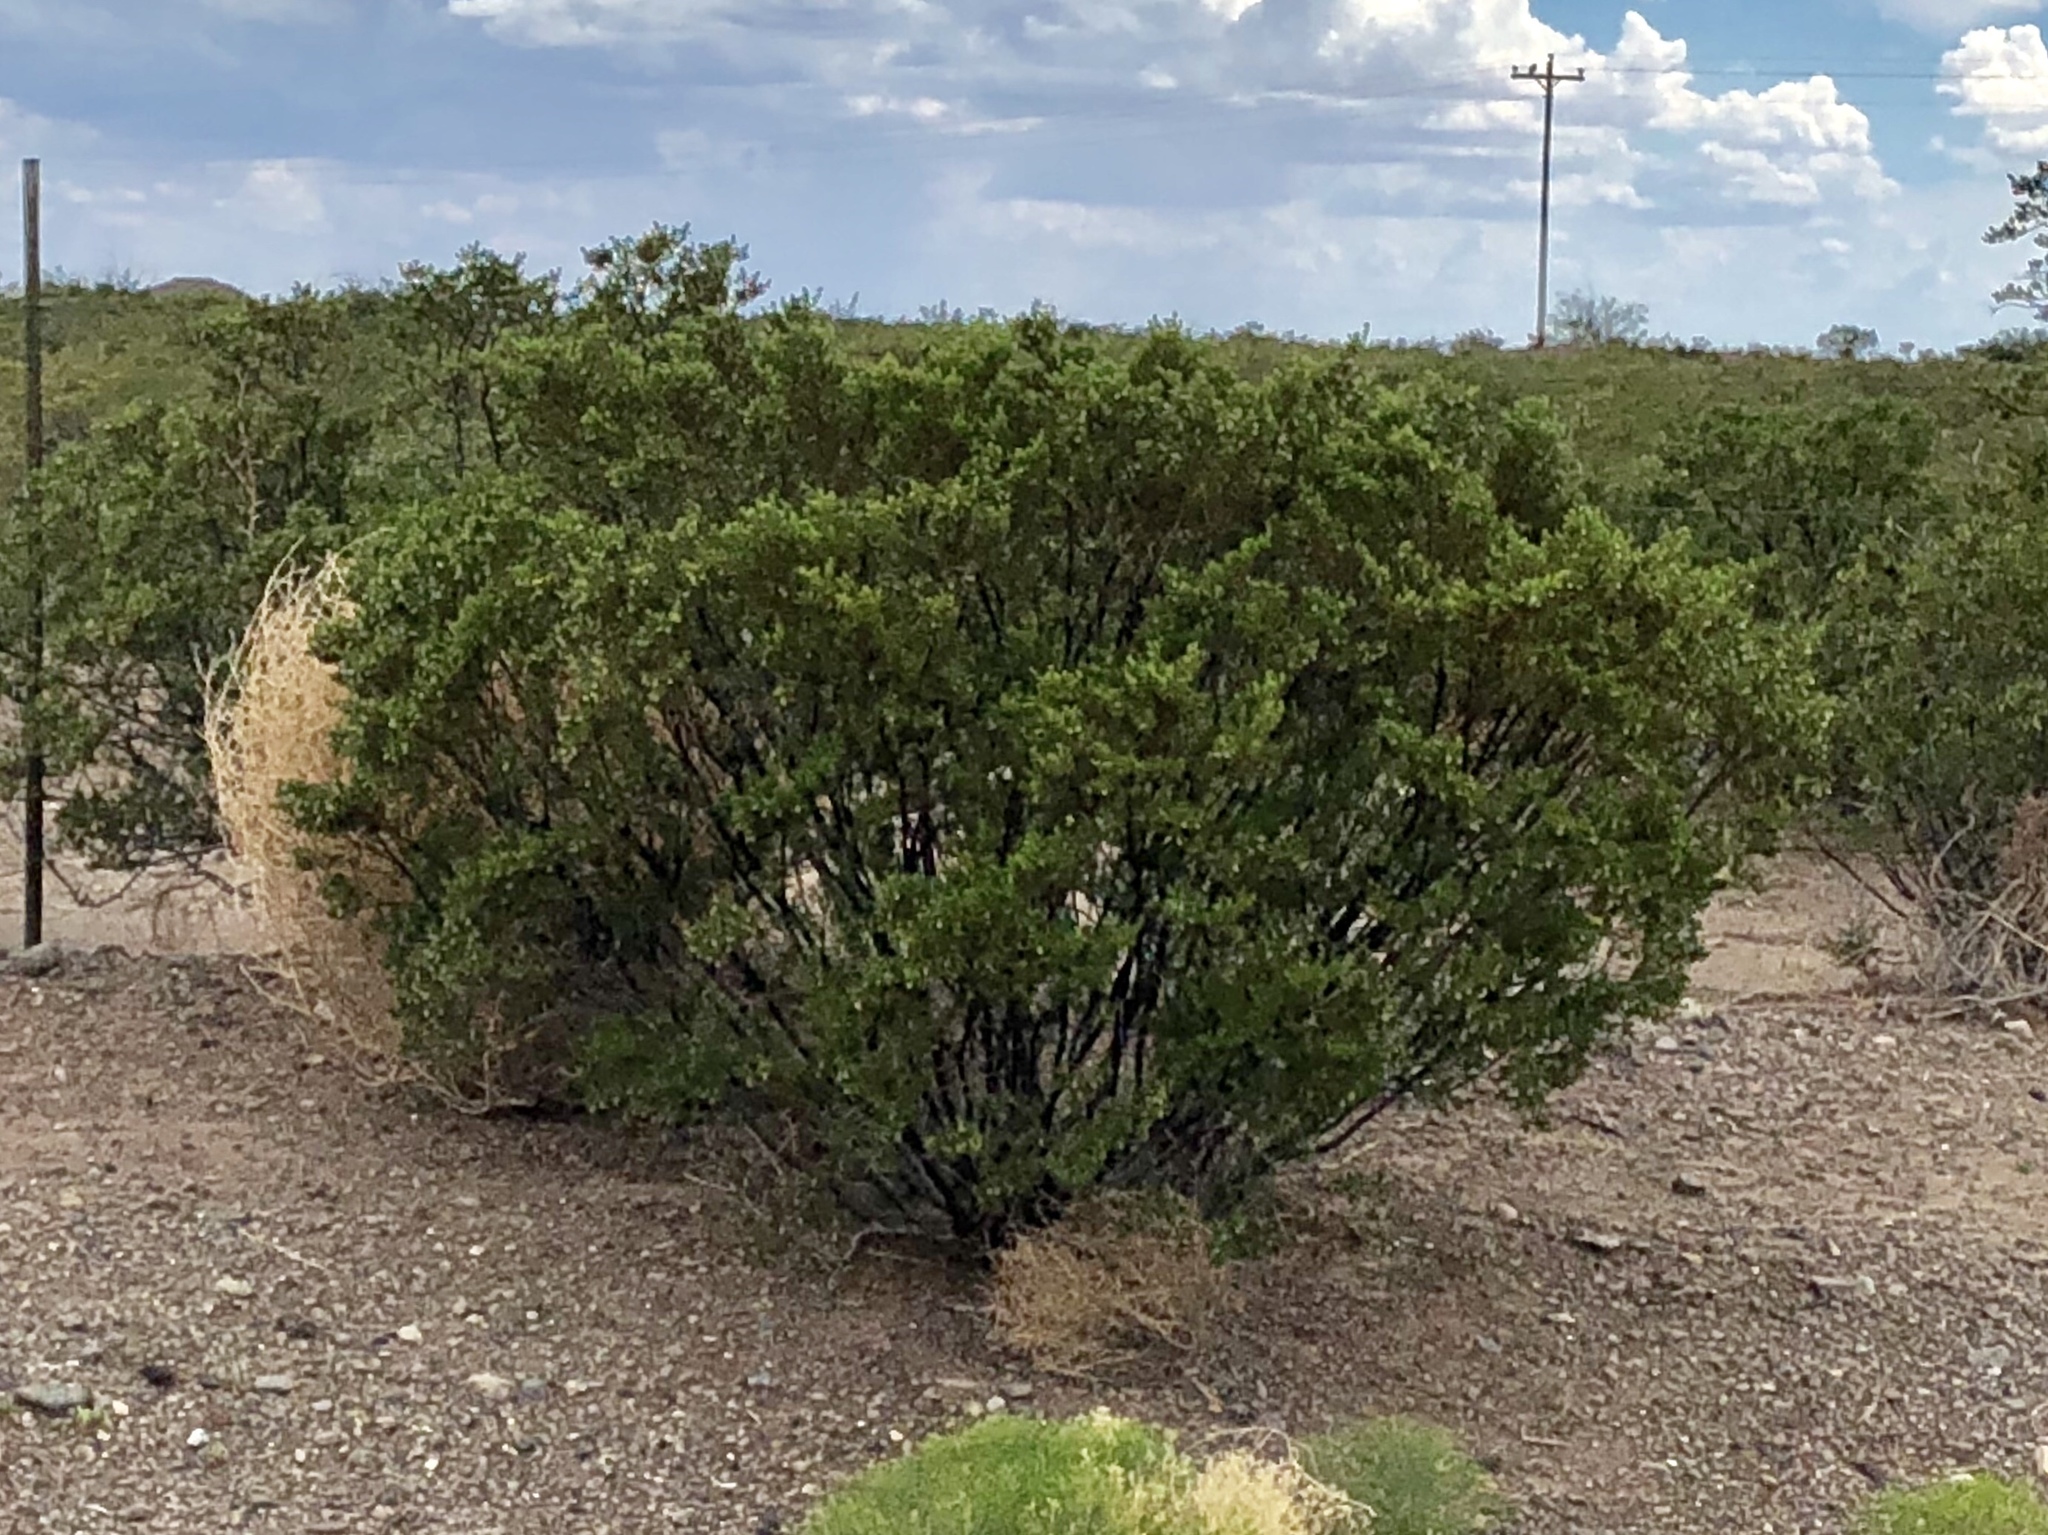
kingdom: Plantae
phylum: Tracheophyta
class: Magnoliopsida
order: Zygophyllales
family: Zygophyllaceae
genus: Larrea
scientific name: Larrea tridentata
